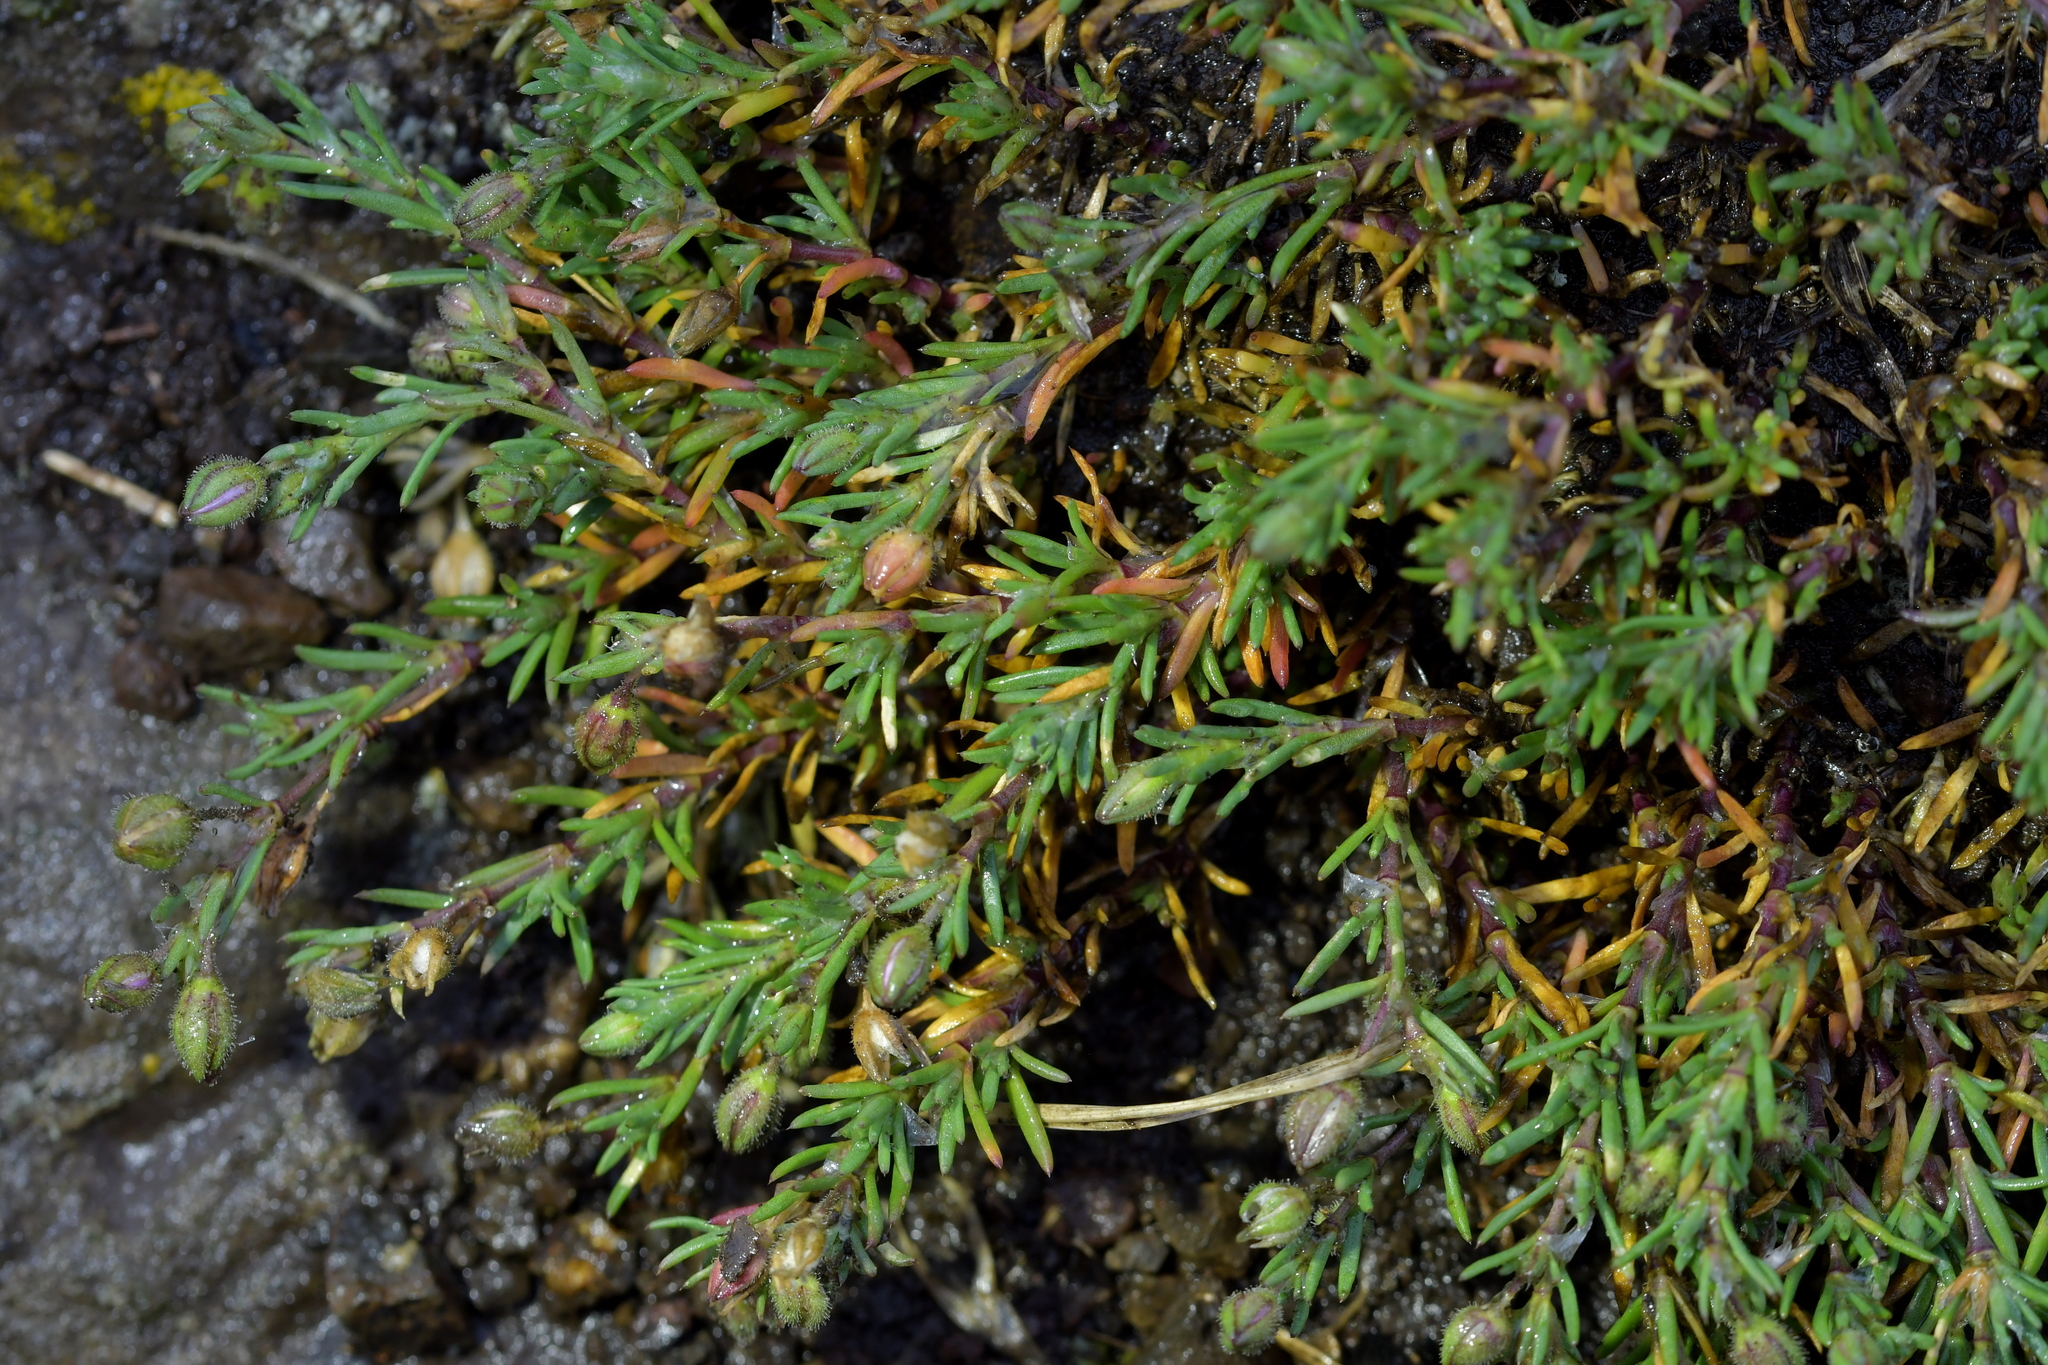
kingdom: Plantae
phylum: Tracheophyta
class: Magnoliopsida
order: Caryophyllales
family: Caryophyllaceae
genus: Spergularia
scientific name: Spergularia rubra
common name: Red sand-spurrey
